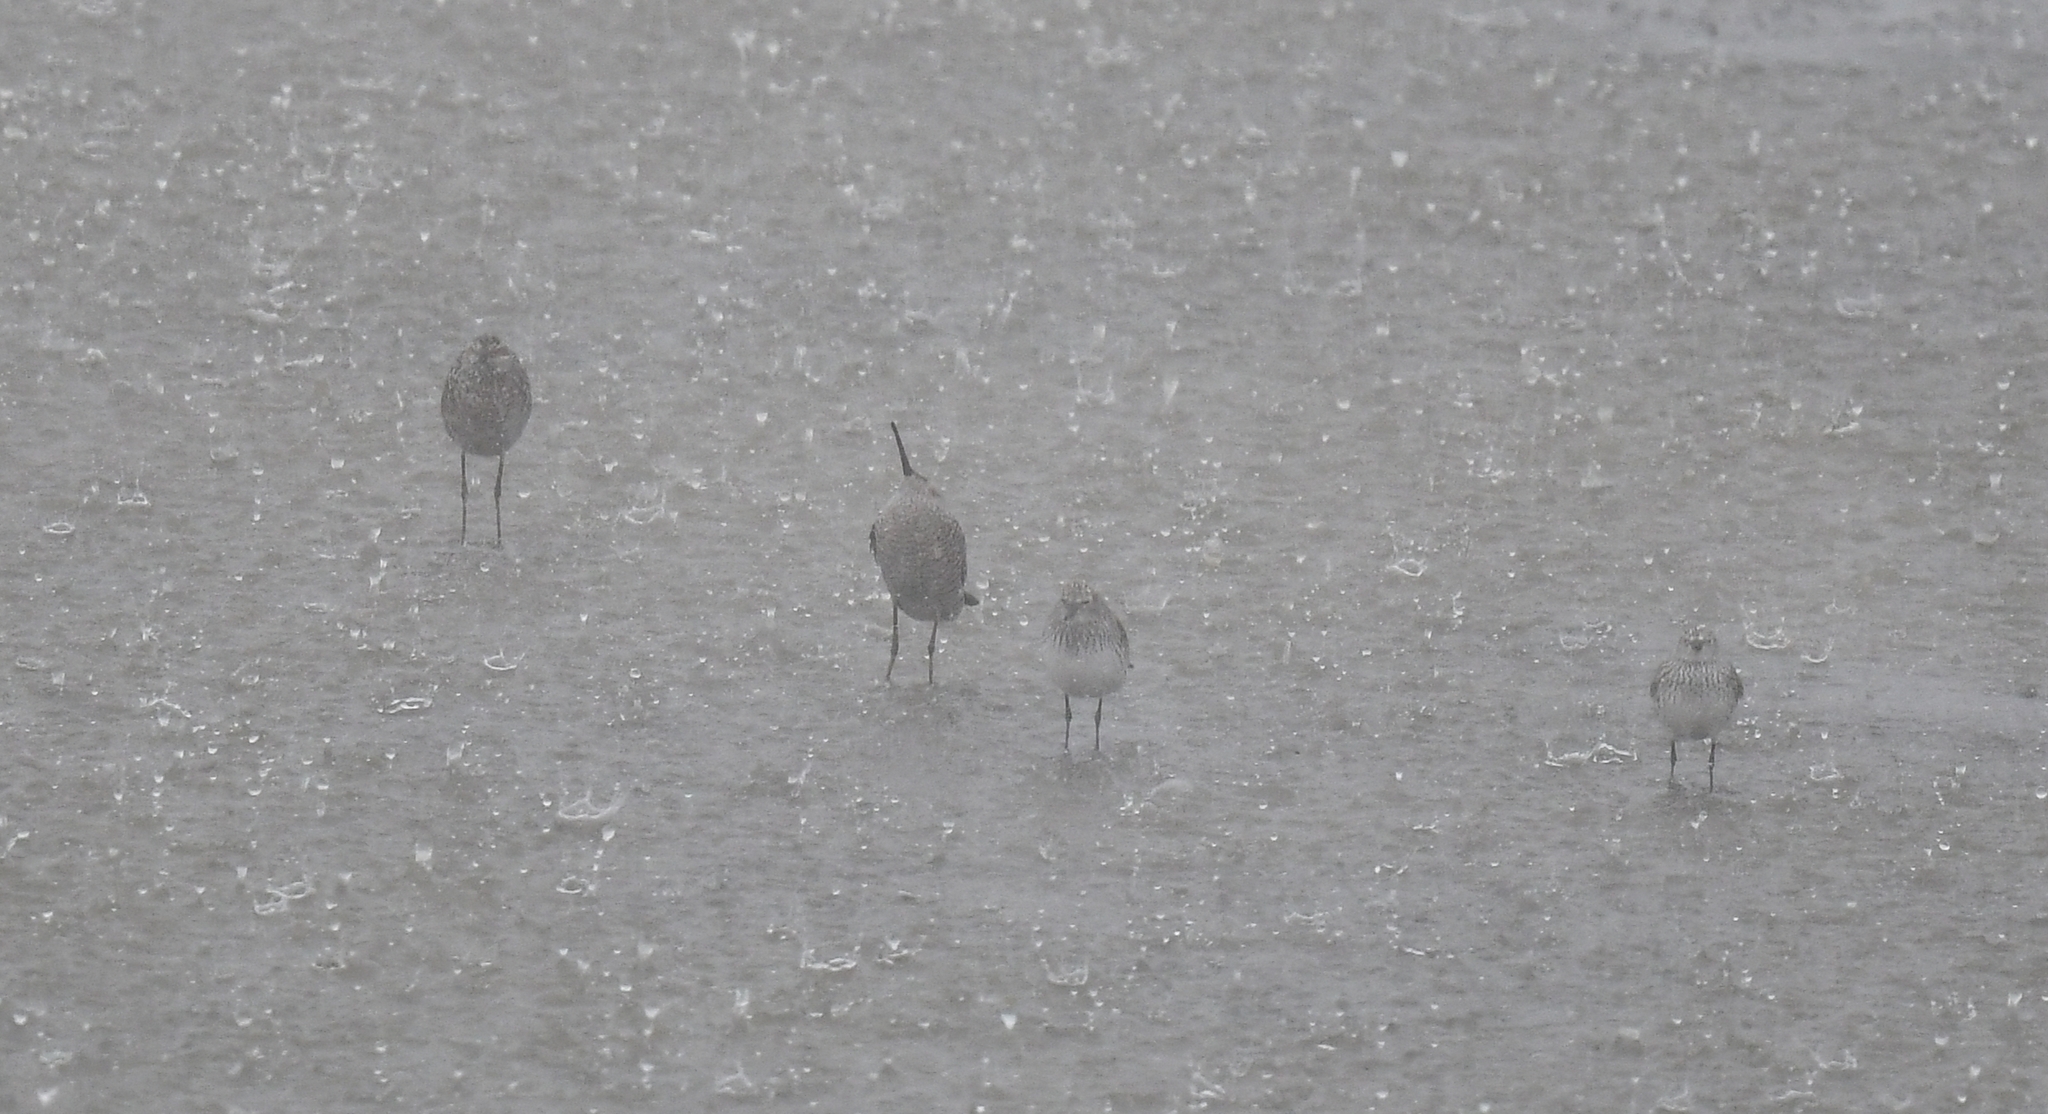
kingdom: Animalia
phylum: Chordata
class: Aves
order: Charadriiformes
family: Scolopacidae
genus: Calidris
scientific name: Calidris himantopus
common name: Stilt sandpiper
